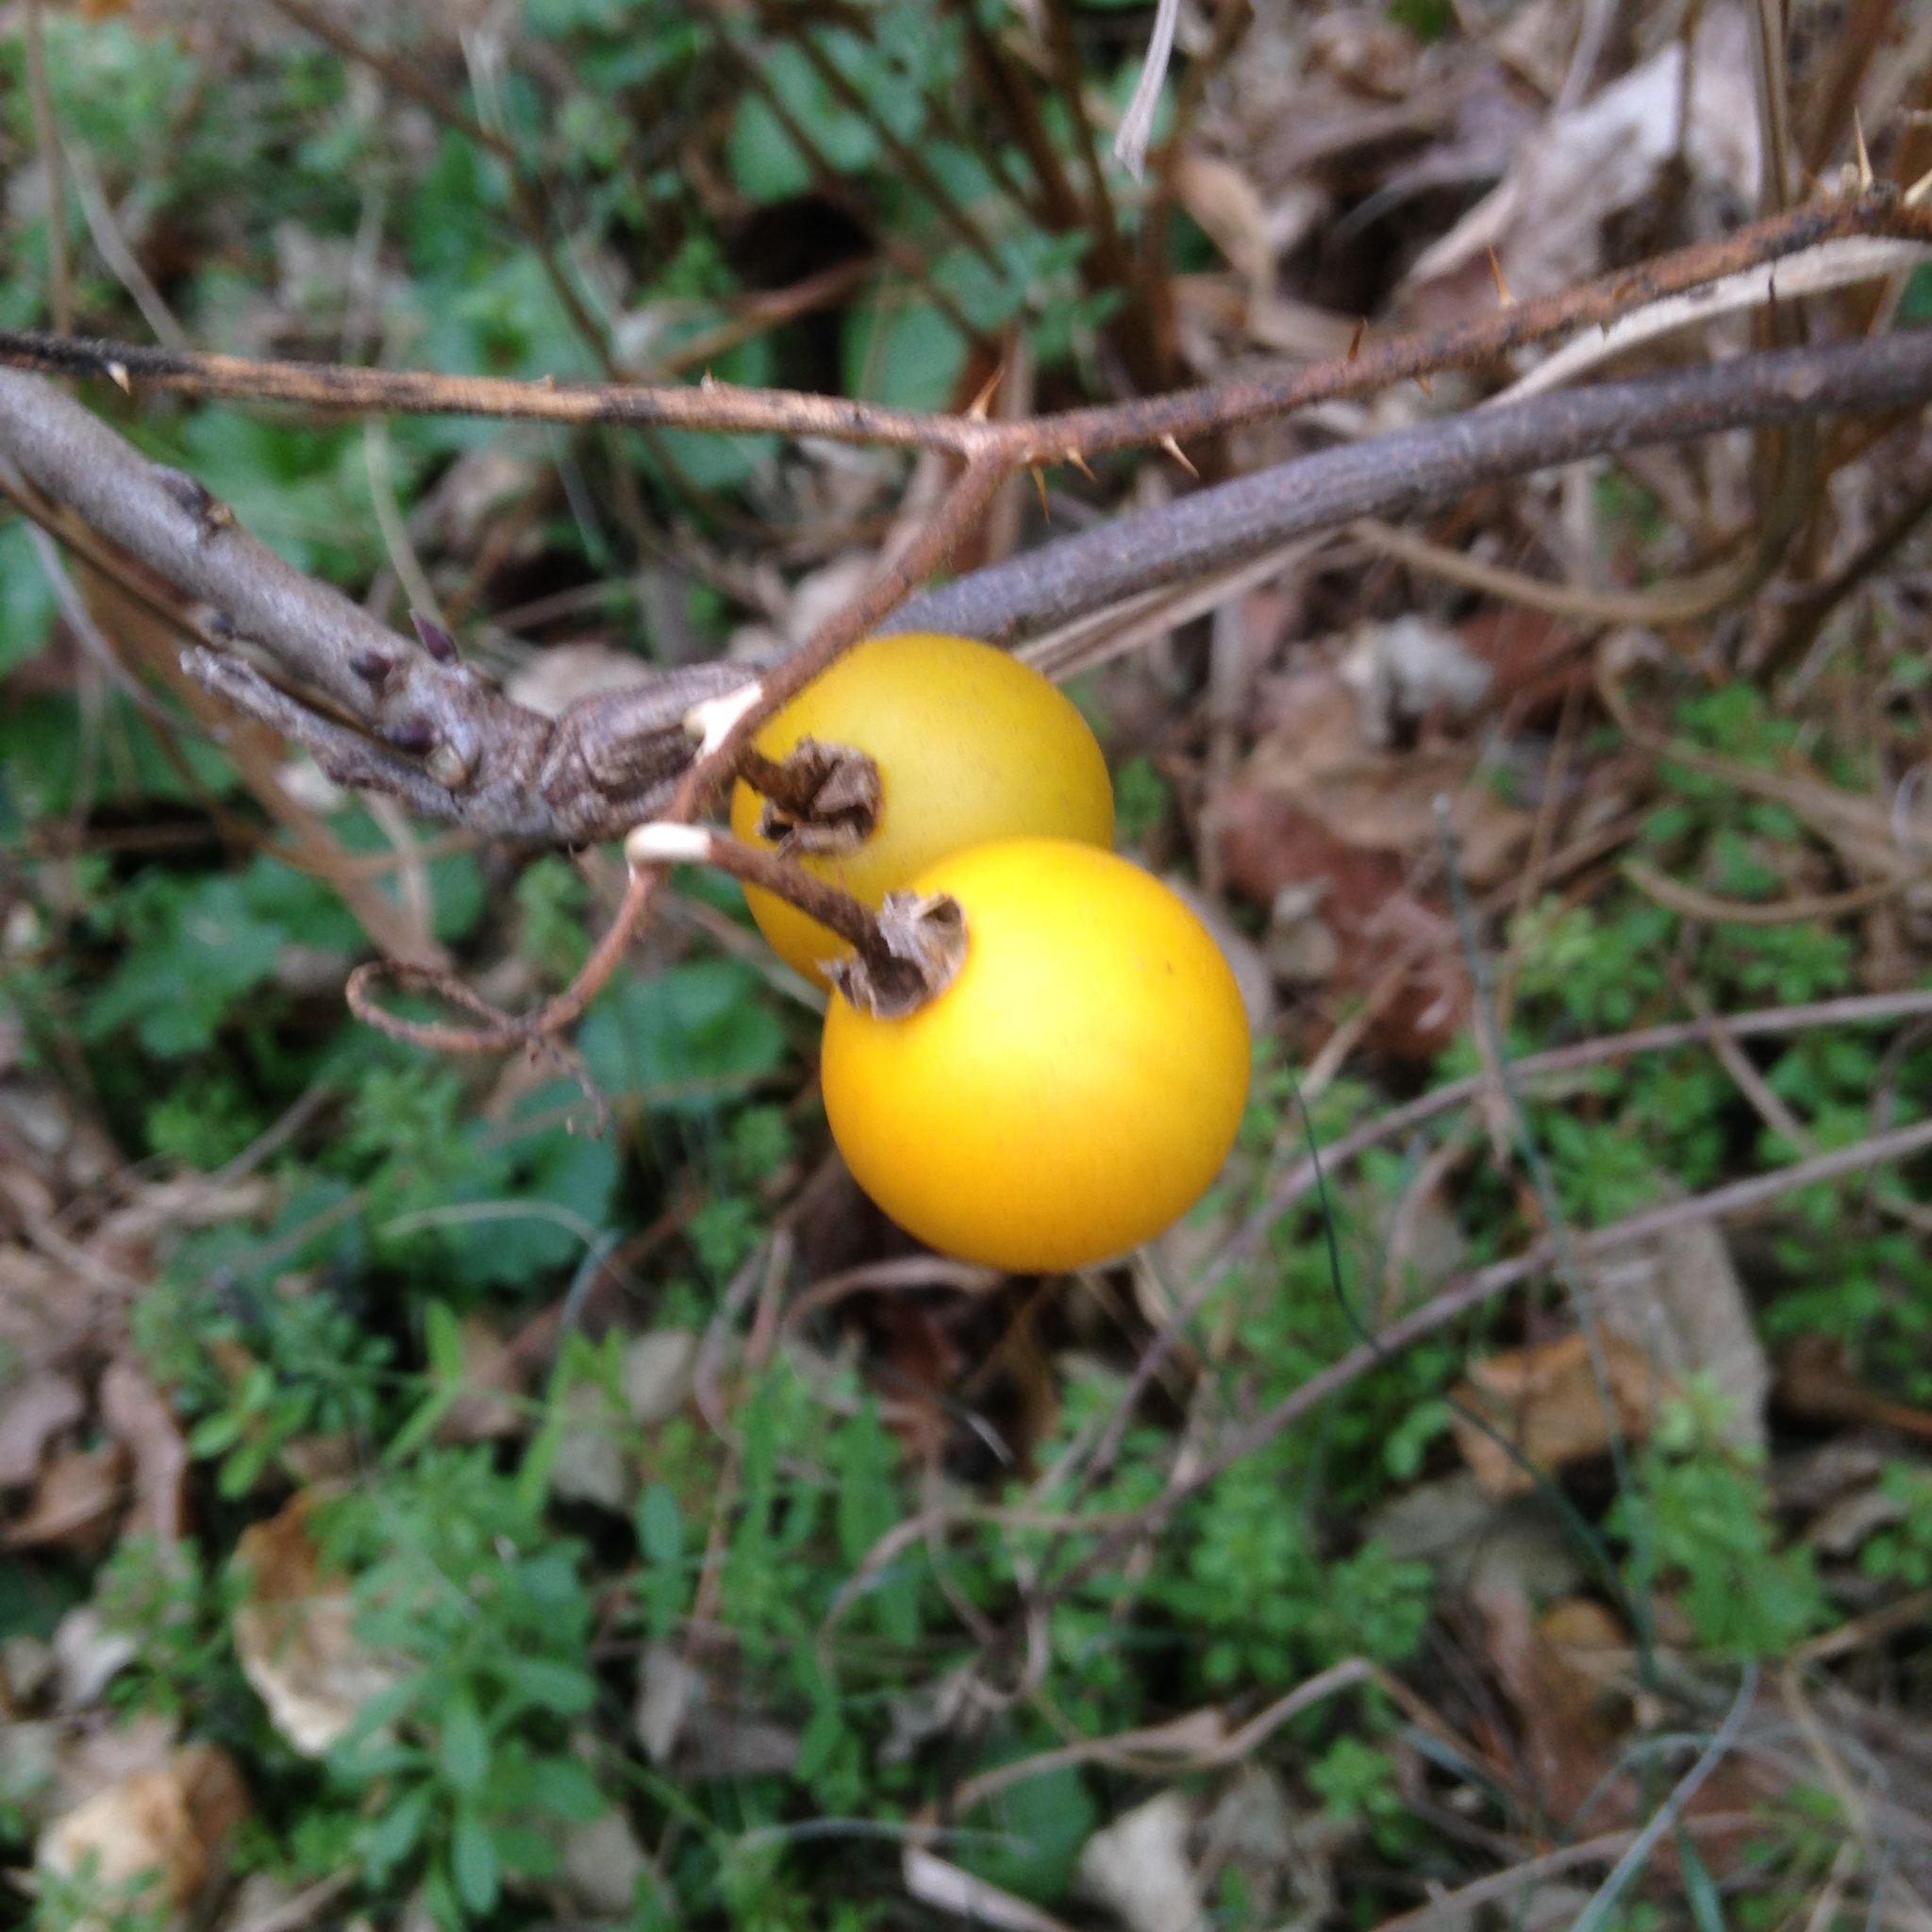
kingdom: Plantae
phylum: Tracheophyta
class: Magnoliopsida
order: Solanales
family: Solanaceae
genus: Solanum
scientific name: Solanum carolinense
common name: Horse-nettle
